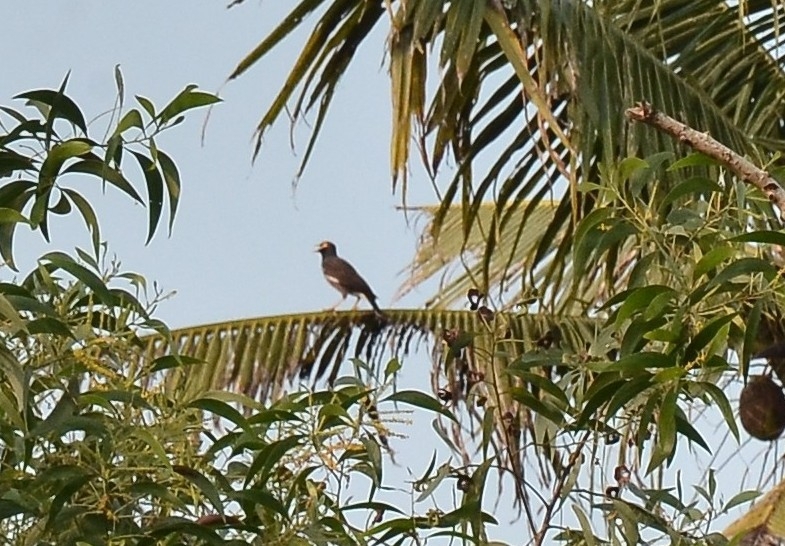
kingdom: Animalia
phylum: Chordata
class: Aves
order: Passeriformes
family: Sturnidae
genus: Acridotheres
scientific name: Acridotheres tristis
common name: Common myna
